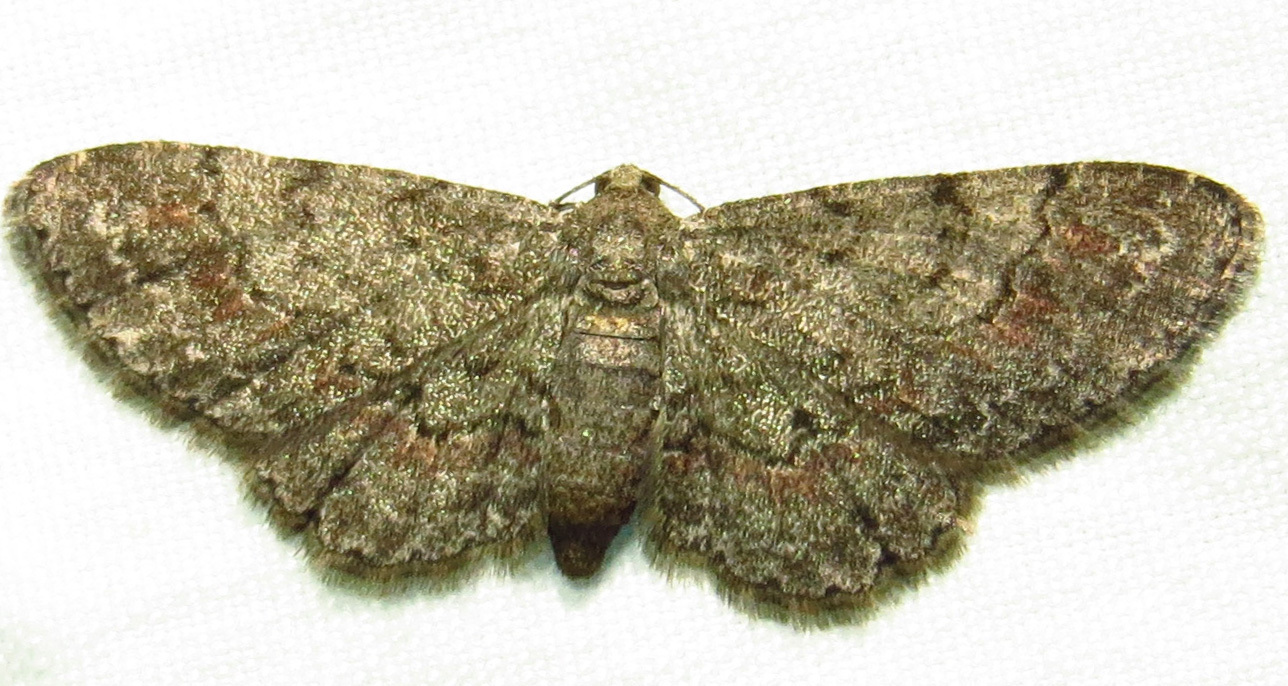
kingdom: Animalia
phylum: Arthropoda
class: Insecta
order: Lepidoptera
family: Geometridae
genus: Glenoides
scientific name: Glenoides texanaria
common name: Texas gray
